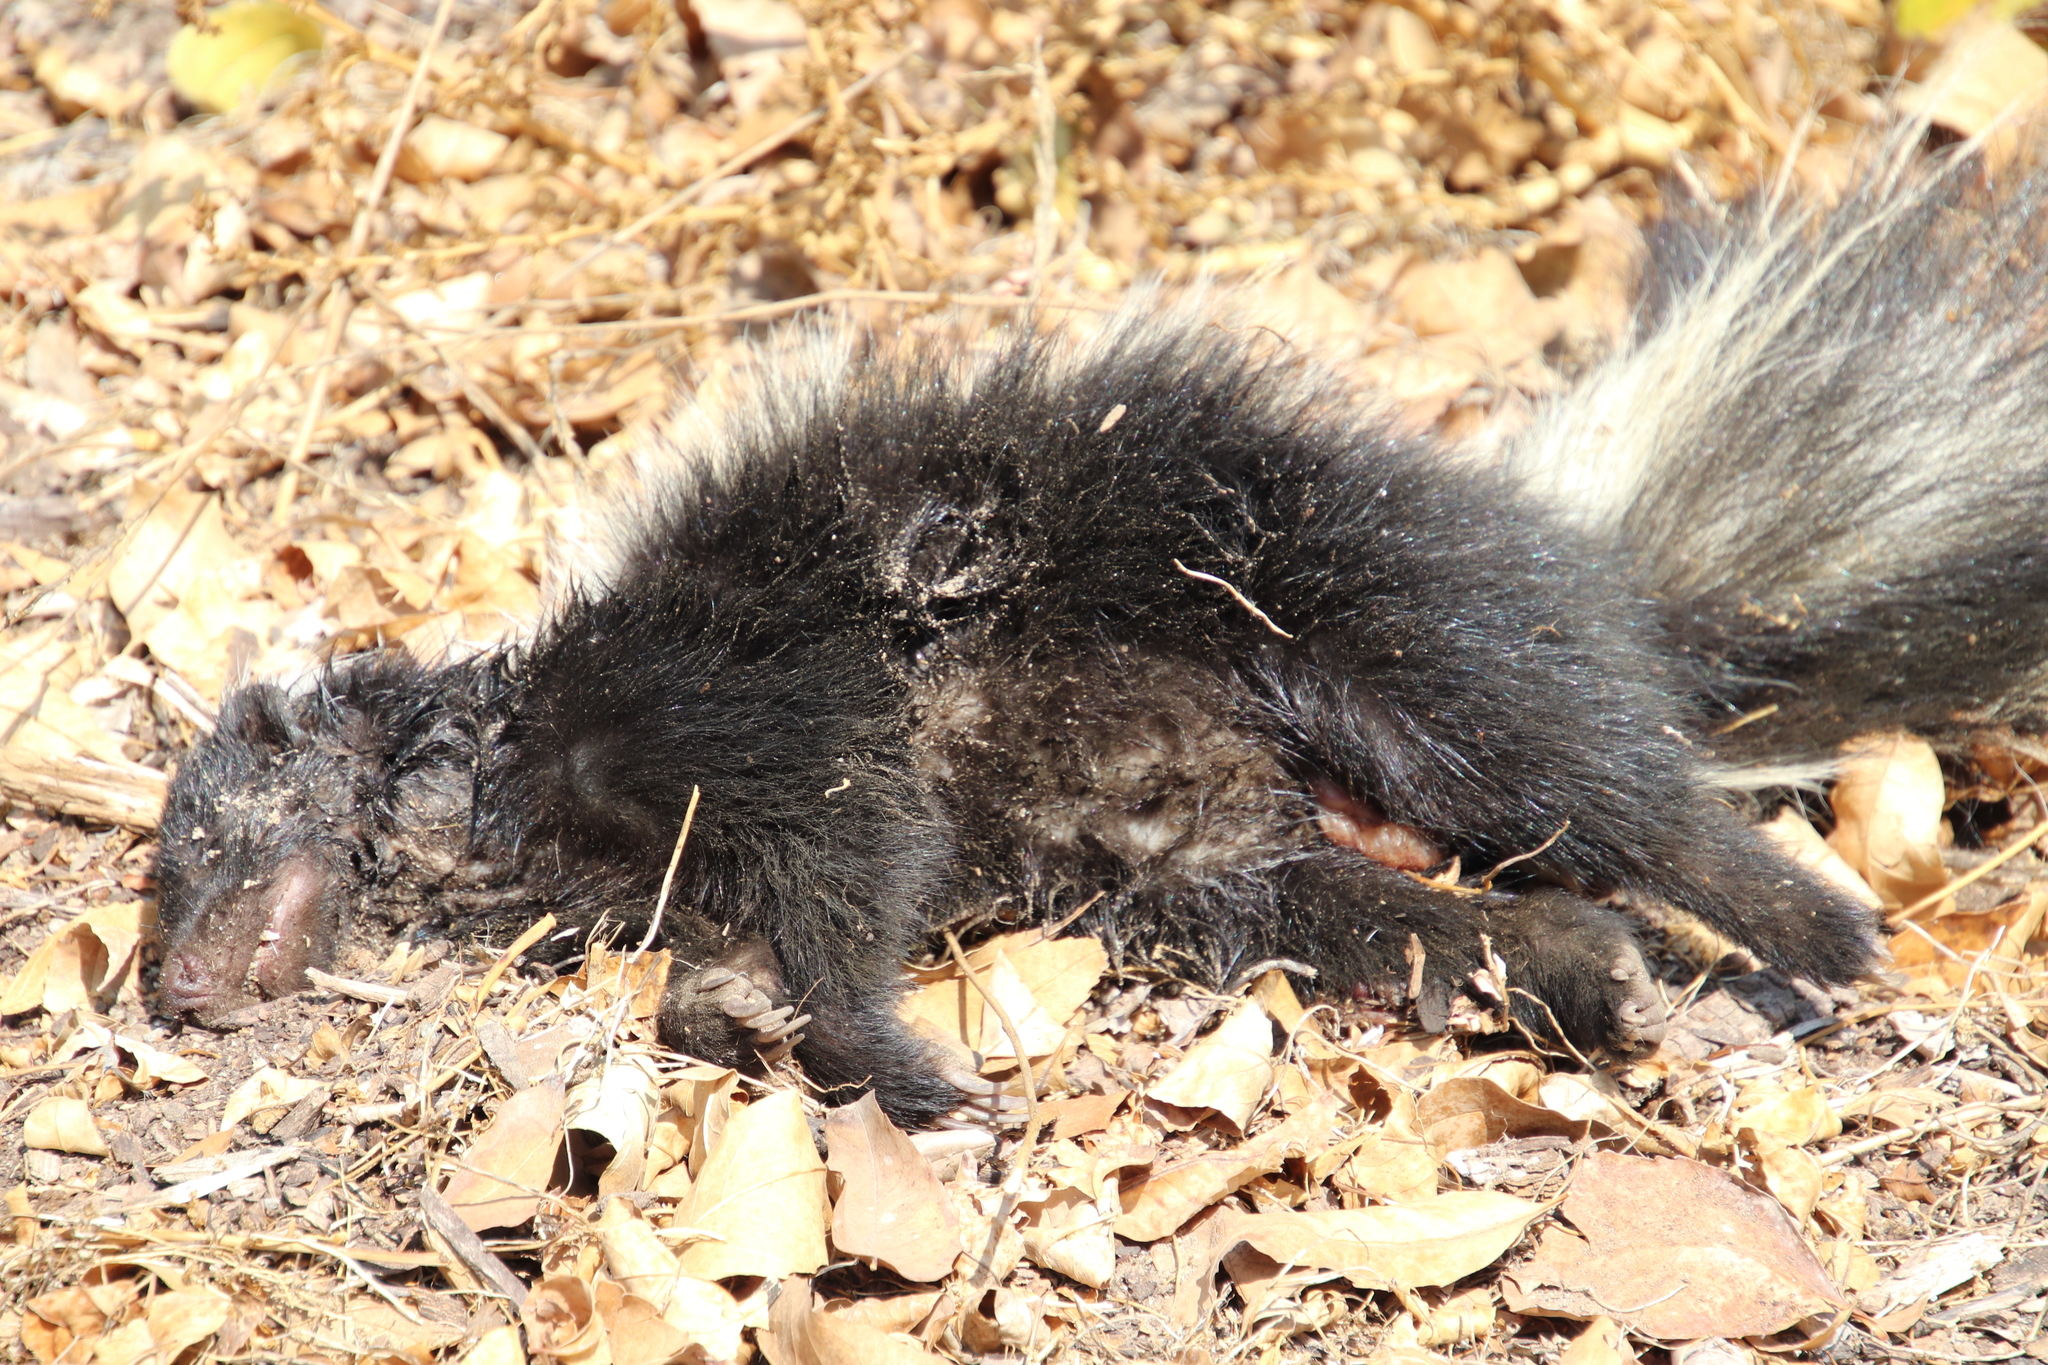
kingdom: Animalia
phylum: Chordata
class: Mammalia
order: Carnivora
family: Mephitidae
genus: Mephitis
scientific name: Mephitis mephitis
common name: Striped skunk
